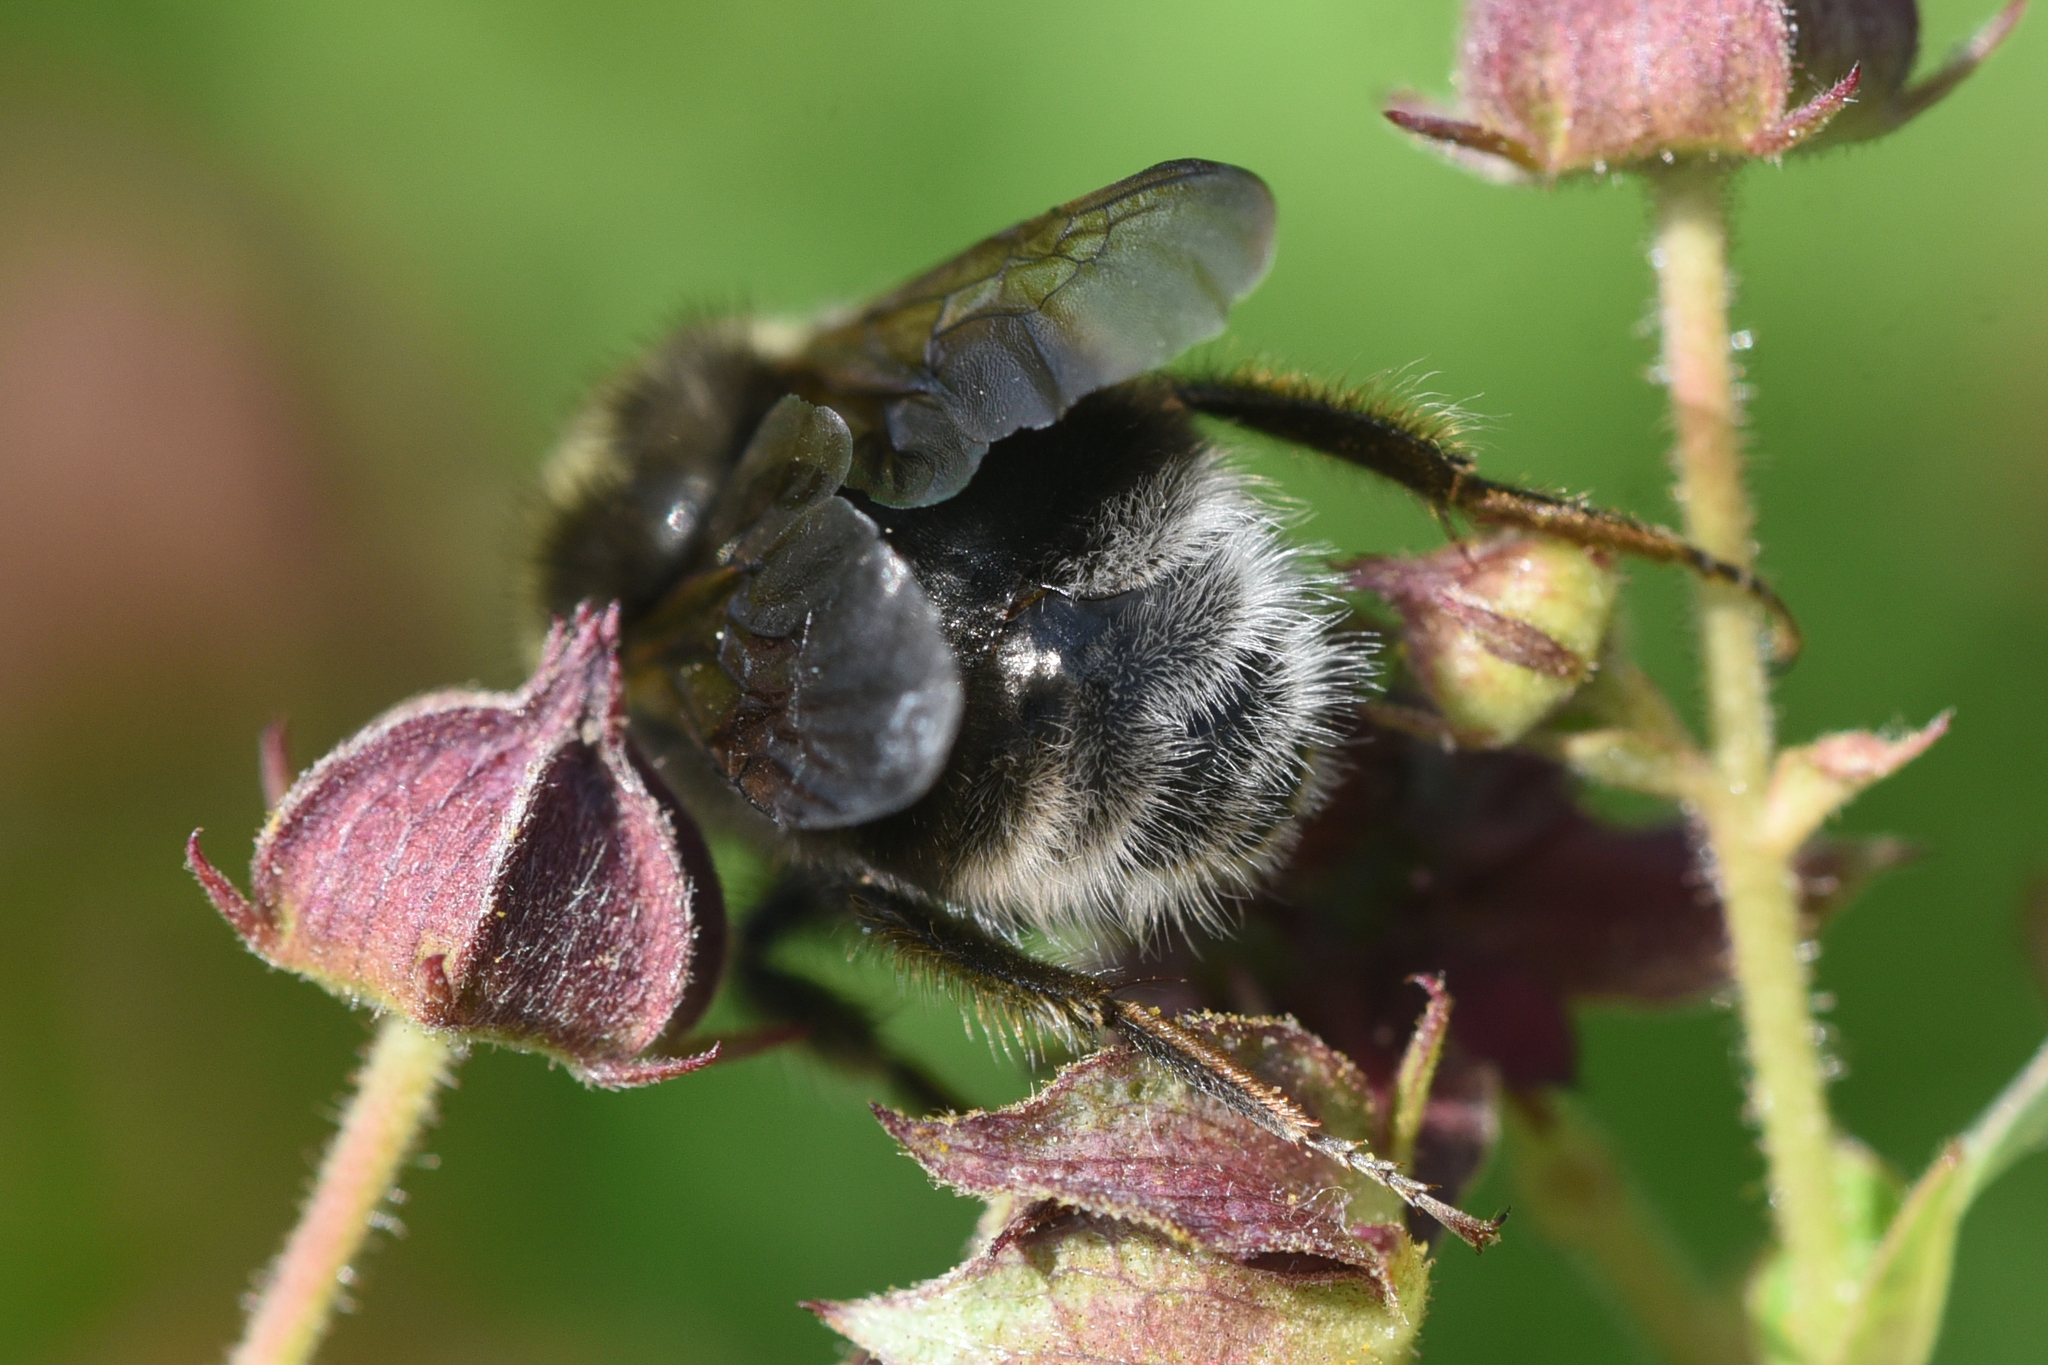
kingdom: Animalia
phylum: Arthropoda
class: Insecta
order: Hymenoptera
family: Apidae
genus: Bombus
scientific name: Bombus occidentalis
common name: Western bumble bee
